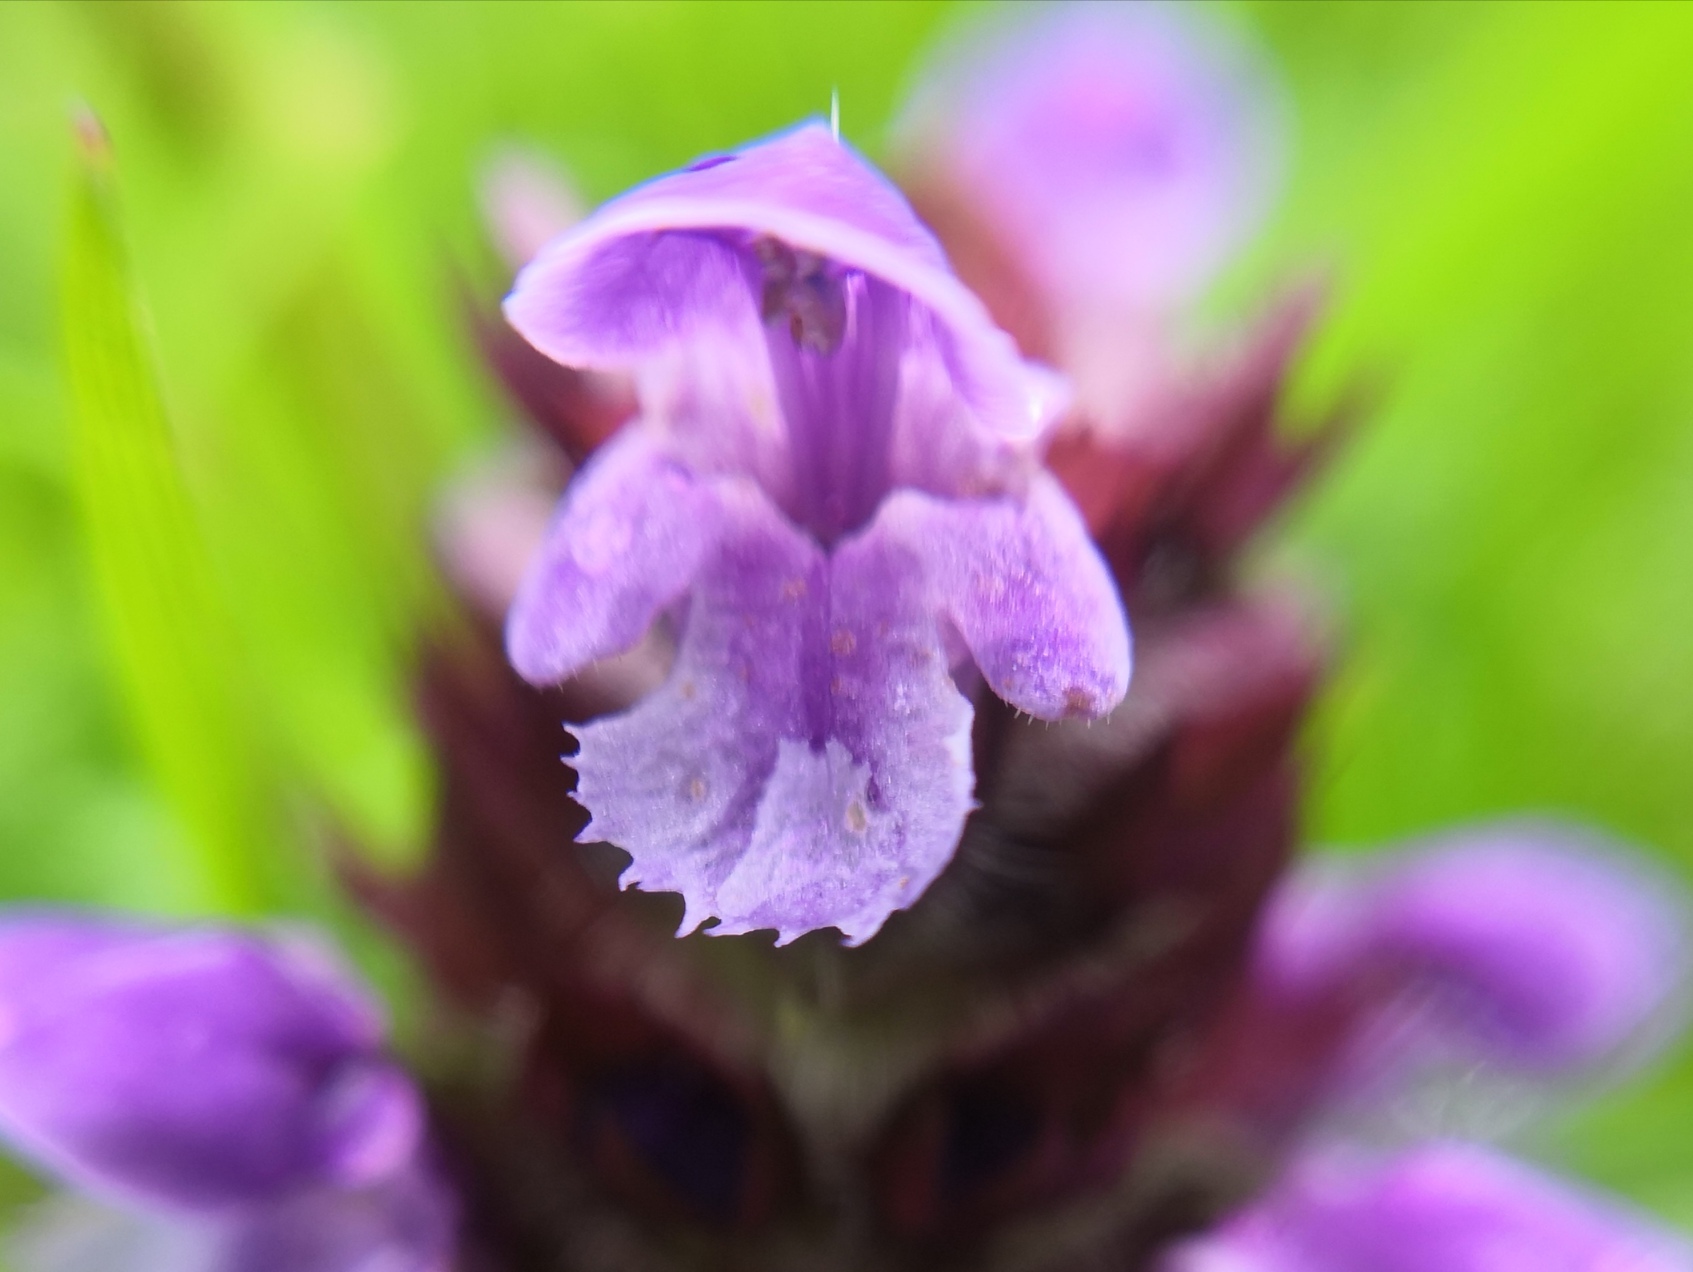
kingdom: Plantae
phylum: Tracheophyta
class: Magnoliopsida
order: Lamiales
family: Lamiaceae
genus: Prunella
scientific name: Prunella vulgaris
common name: Heal-all
